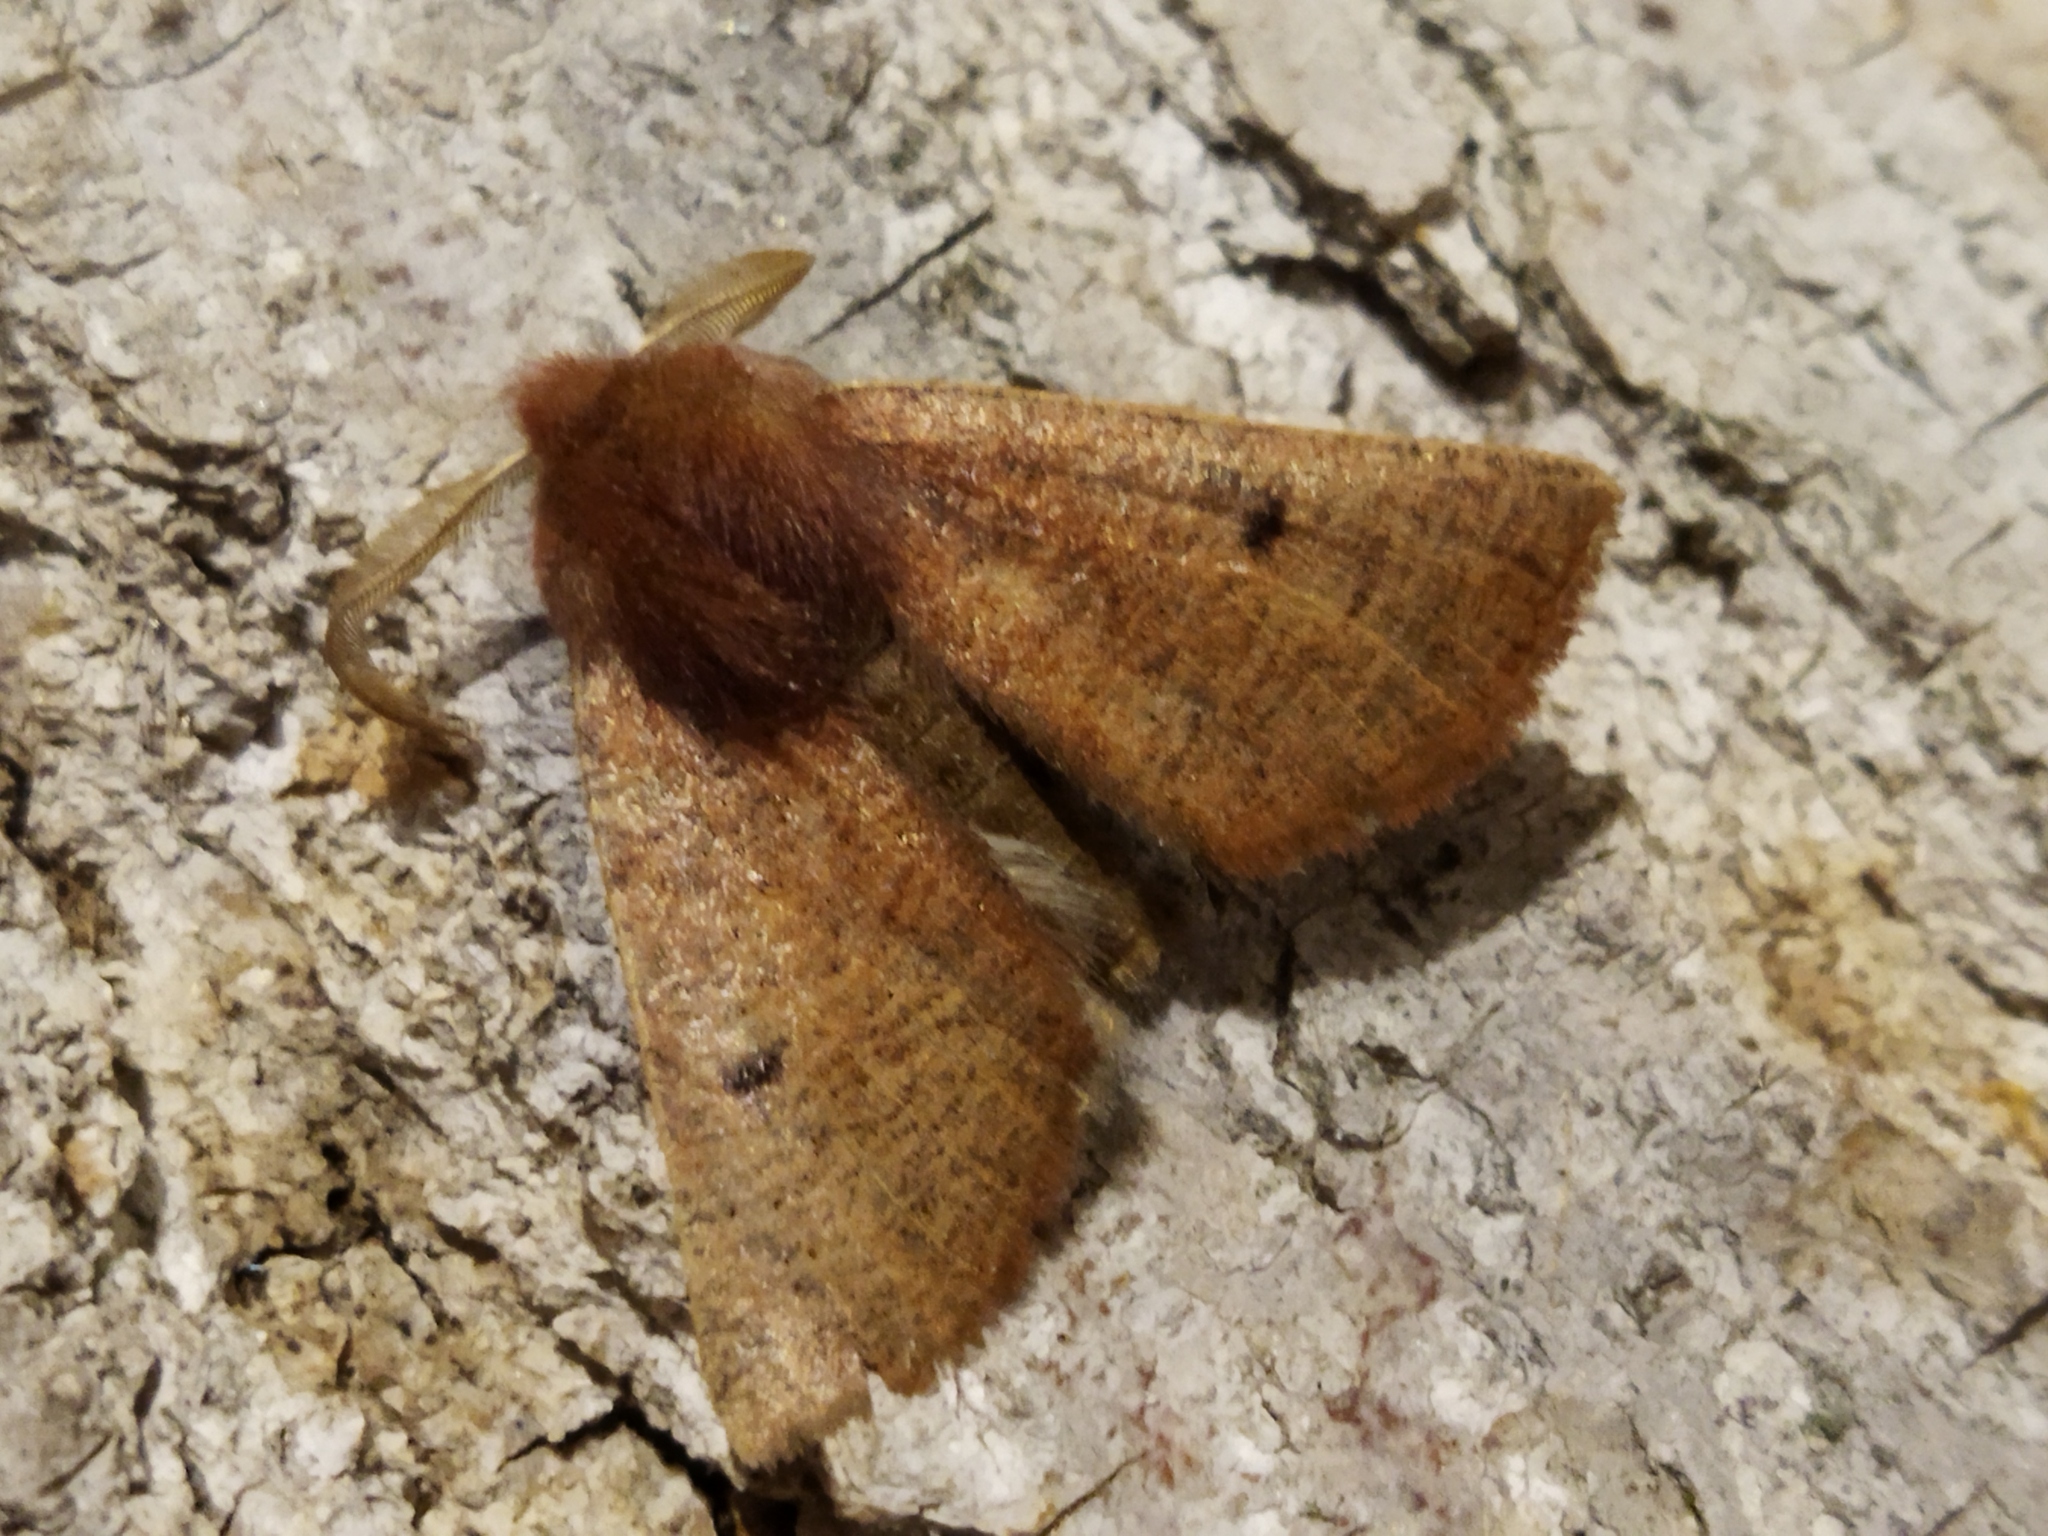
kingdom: Animalia
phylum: Arthropoda
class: Insecta
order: Lepidoptera
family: Geometridae
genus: Dasycorsa
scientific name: Dasycorsa modesta
